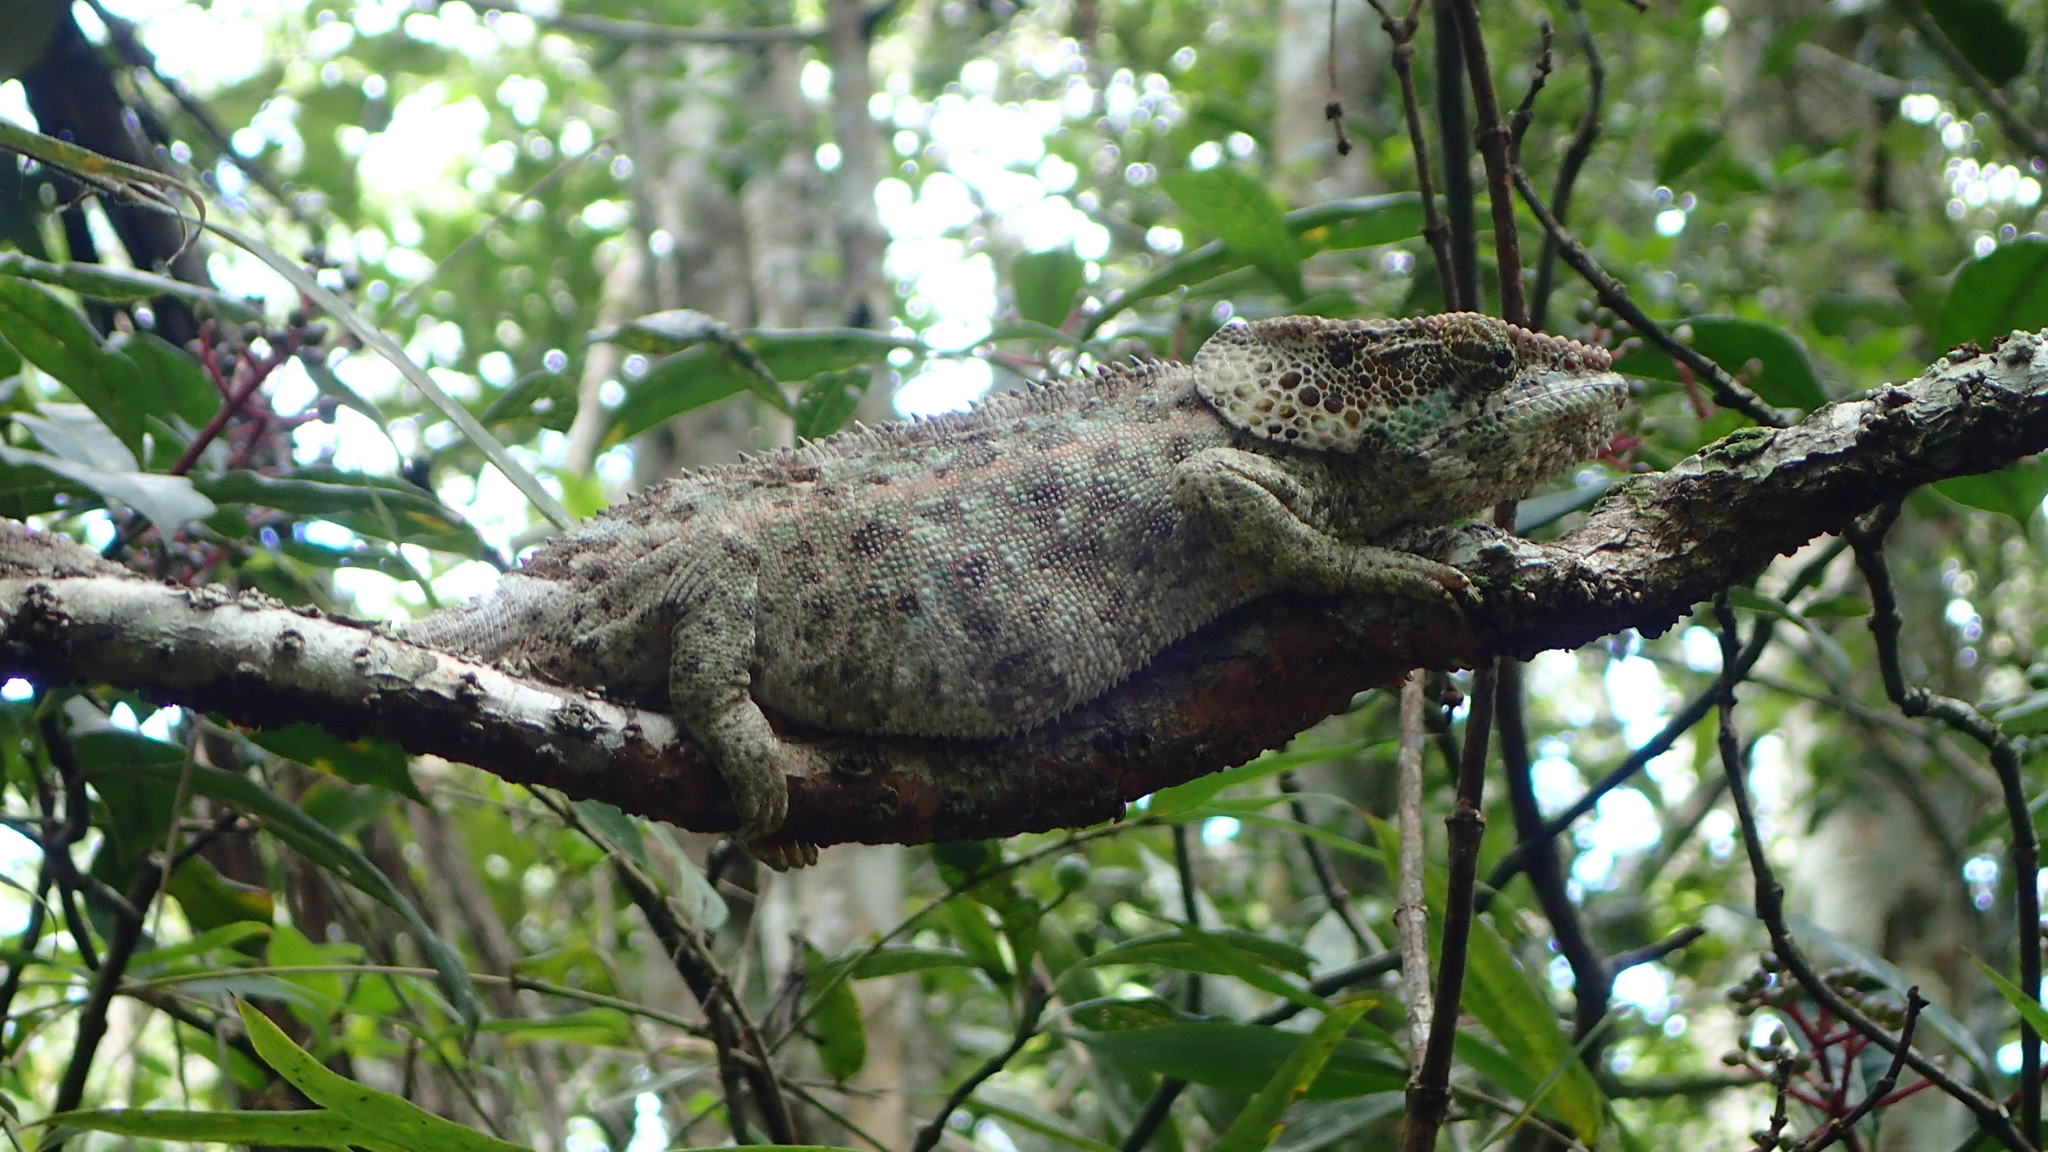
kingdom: Animalia
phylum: Chordata
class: Squamata
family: Chamaeleonidae
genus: Calumma
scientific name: Calumma brevicorne
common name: Short-horned chameleon
